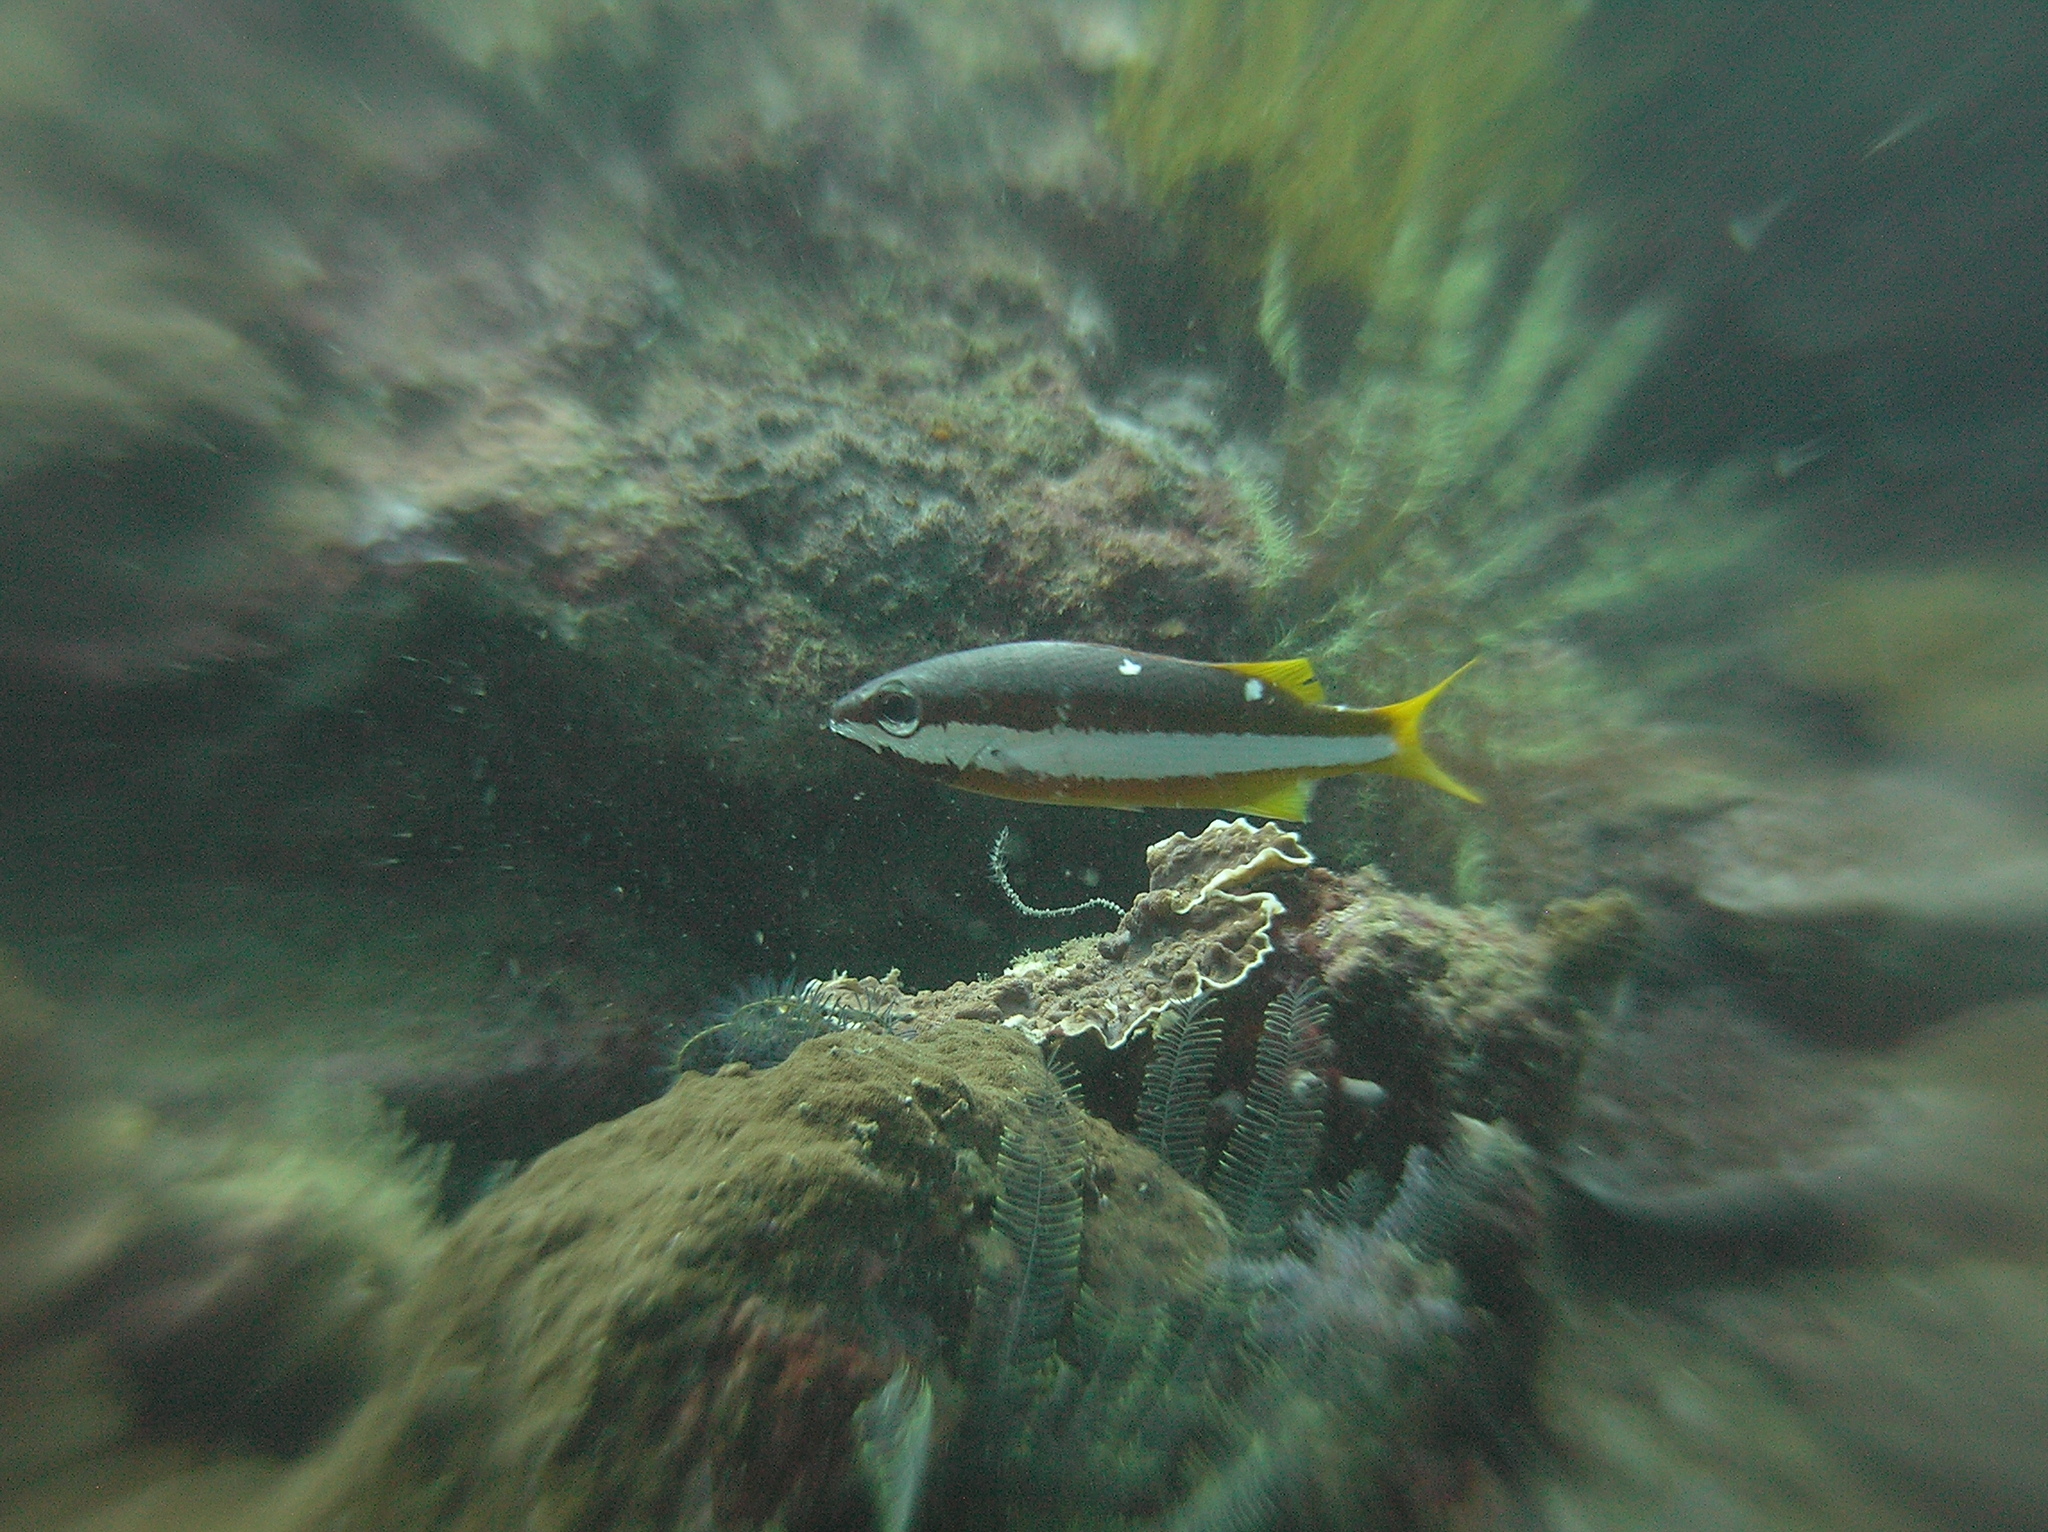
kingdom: Animalia
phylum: Chordata
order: Perciformes
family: Lutjanidae
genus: Lutjanus
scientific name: Lutjanus biguttatus
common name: Two-spot snapper
